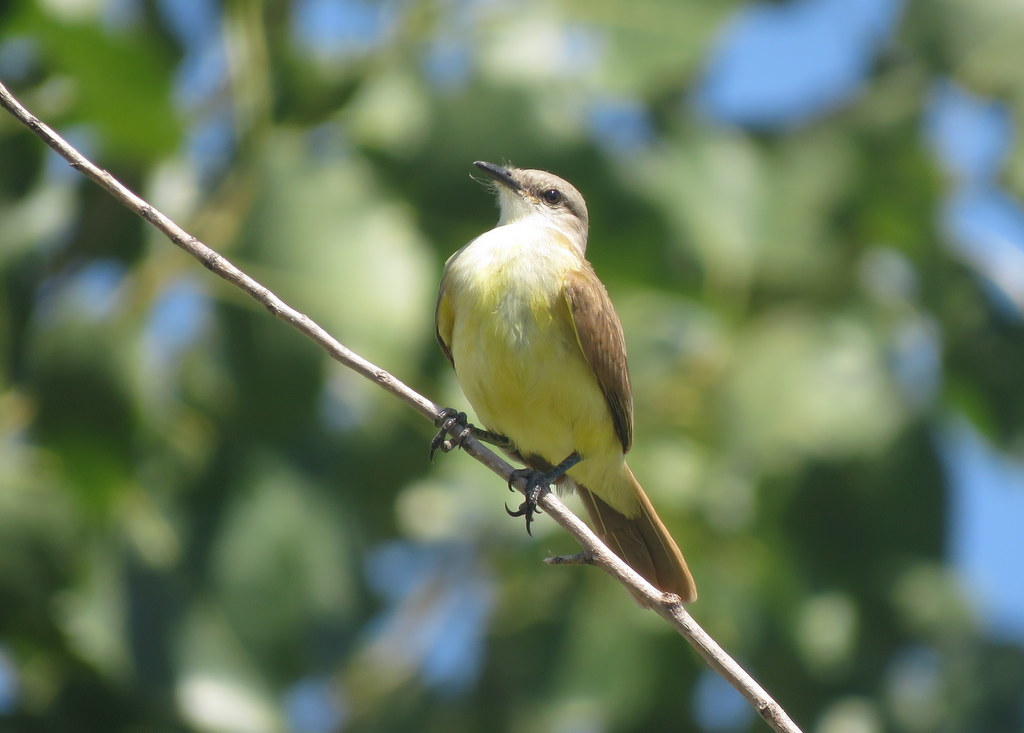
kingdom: Animalia
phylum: Chordata
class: Aves
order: Passeriformes
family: Tyrannidae
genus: Machetornis
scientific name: Machetornis rixosa
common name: Cattle tyrant
